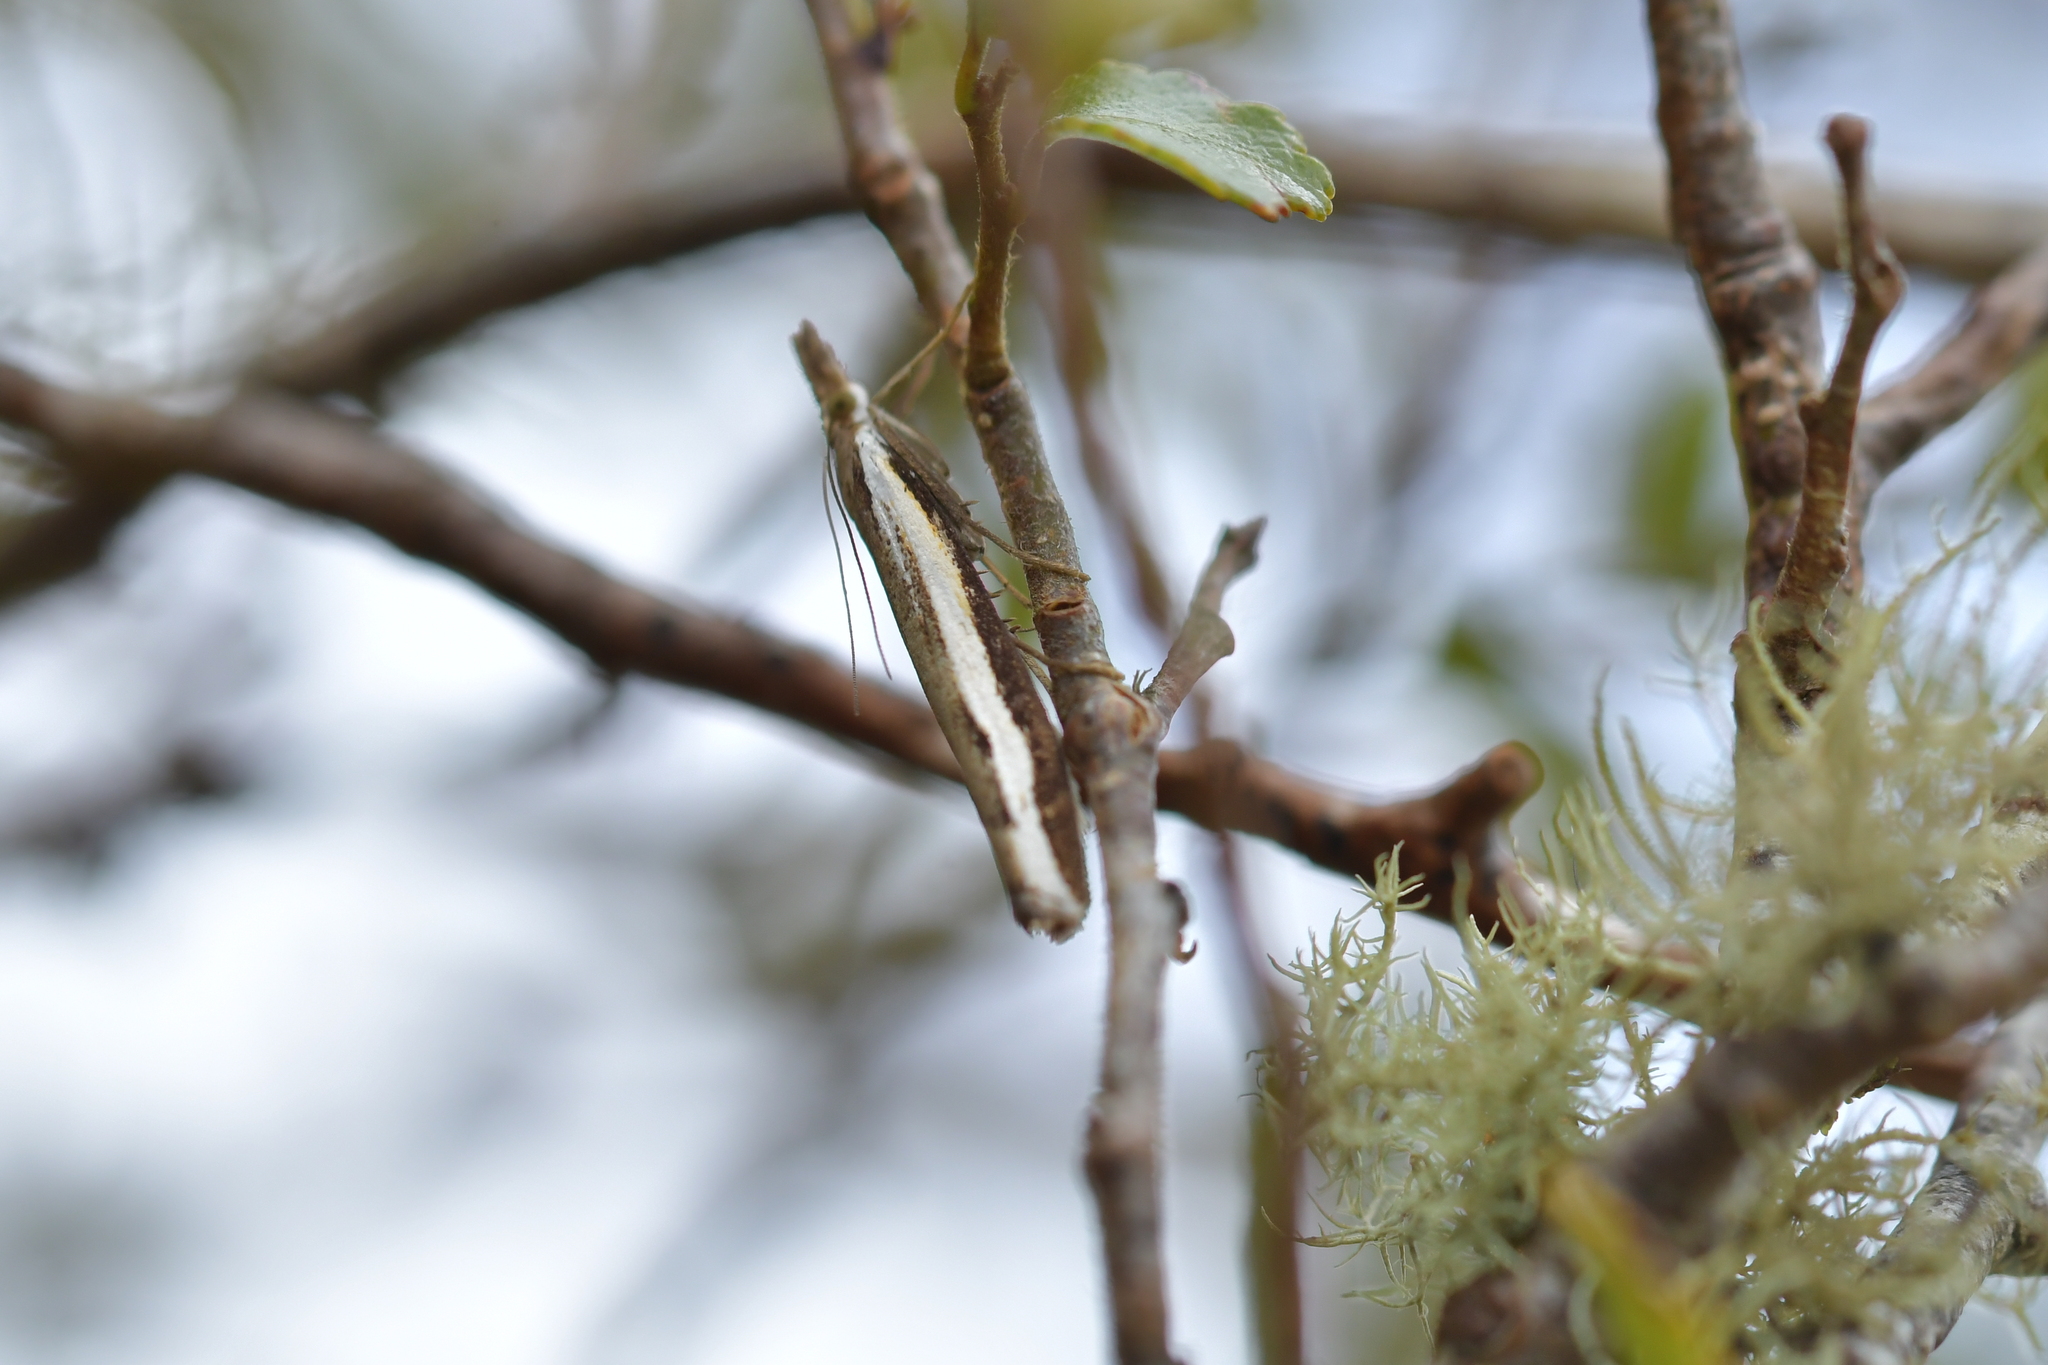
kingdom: Animalia
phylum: Arthropoda
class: Insecta
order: Lepidoptera
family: Crambidae
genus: Orocrambus
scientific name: Orocrambus flexuosellus
